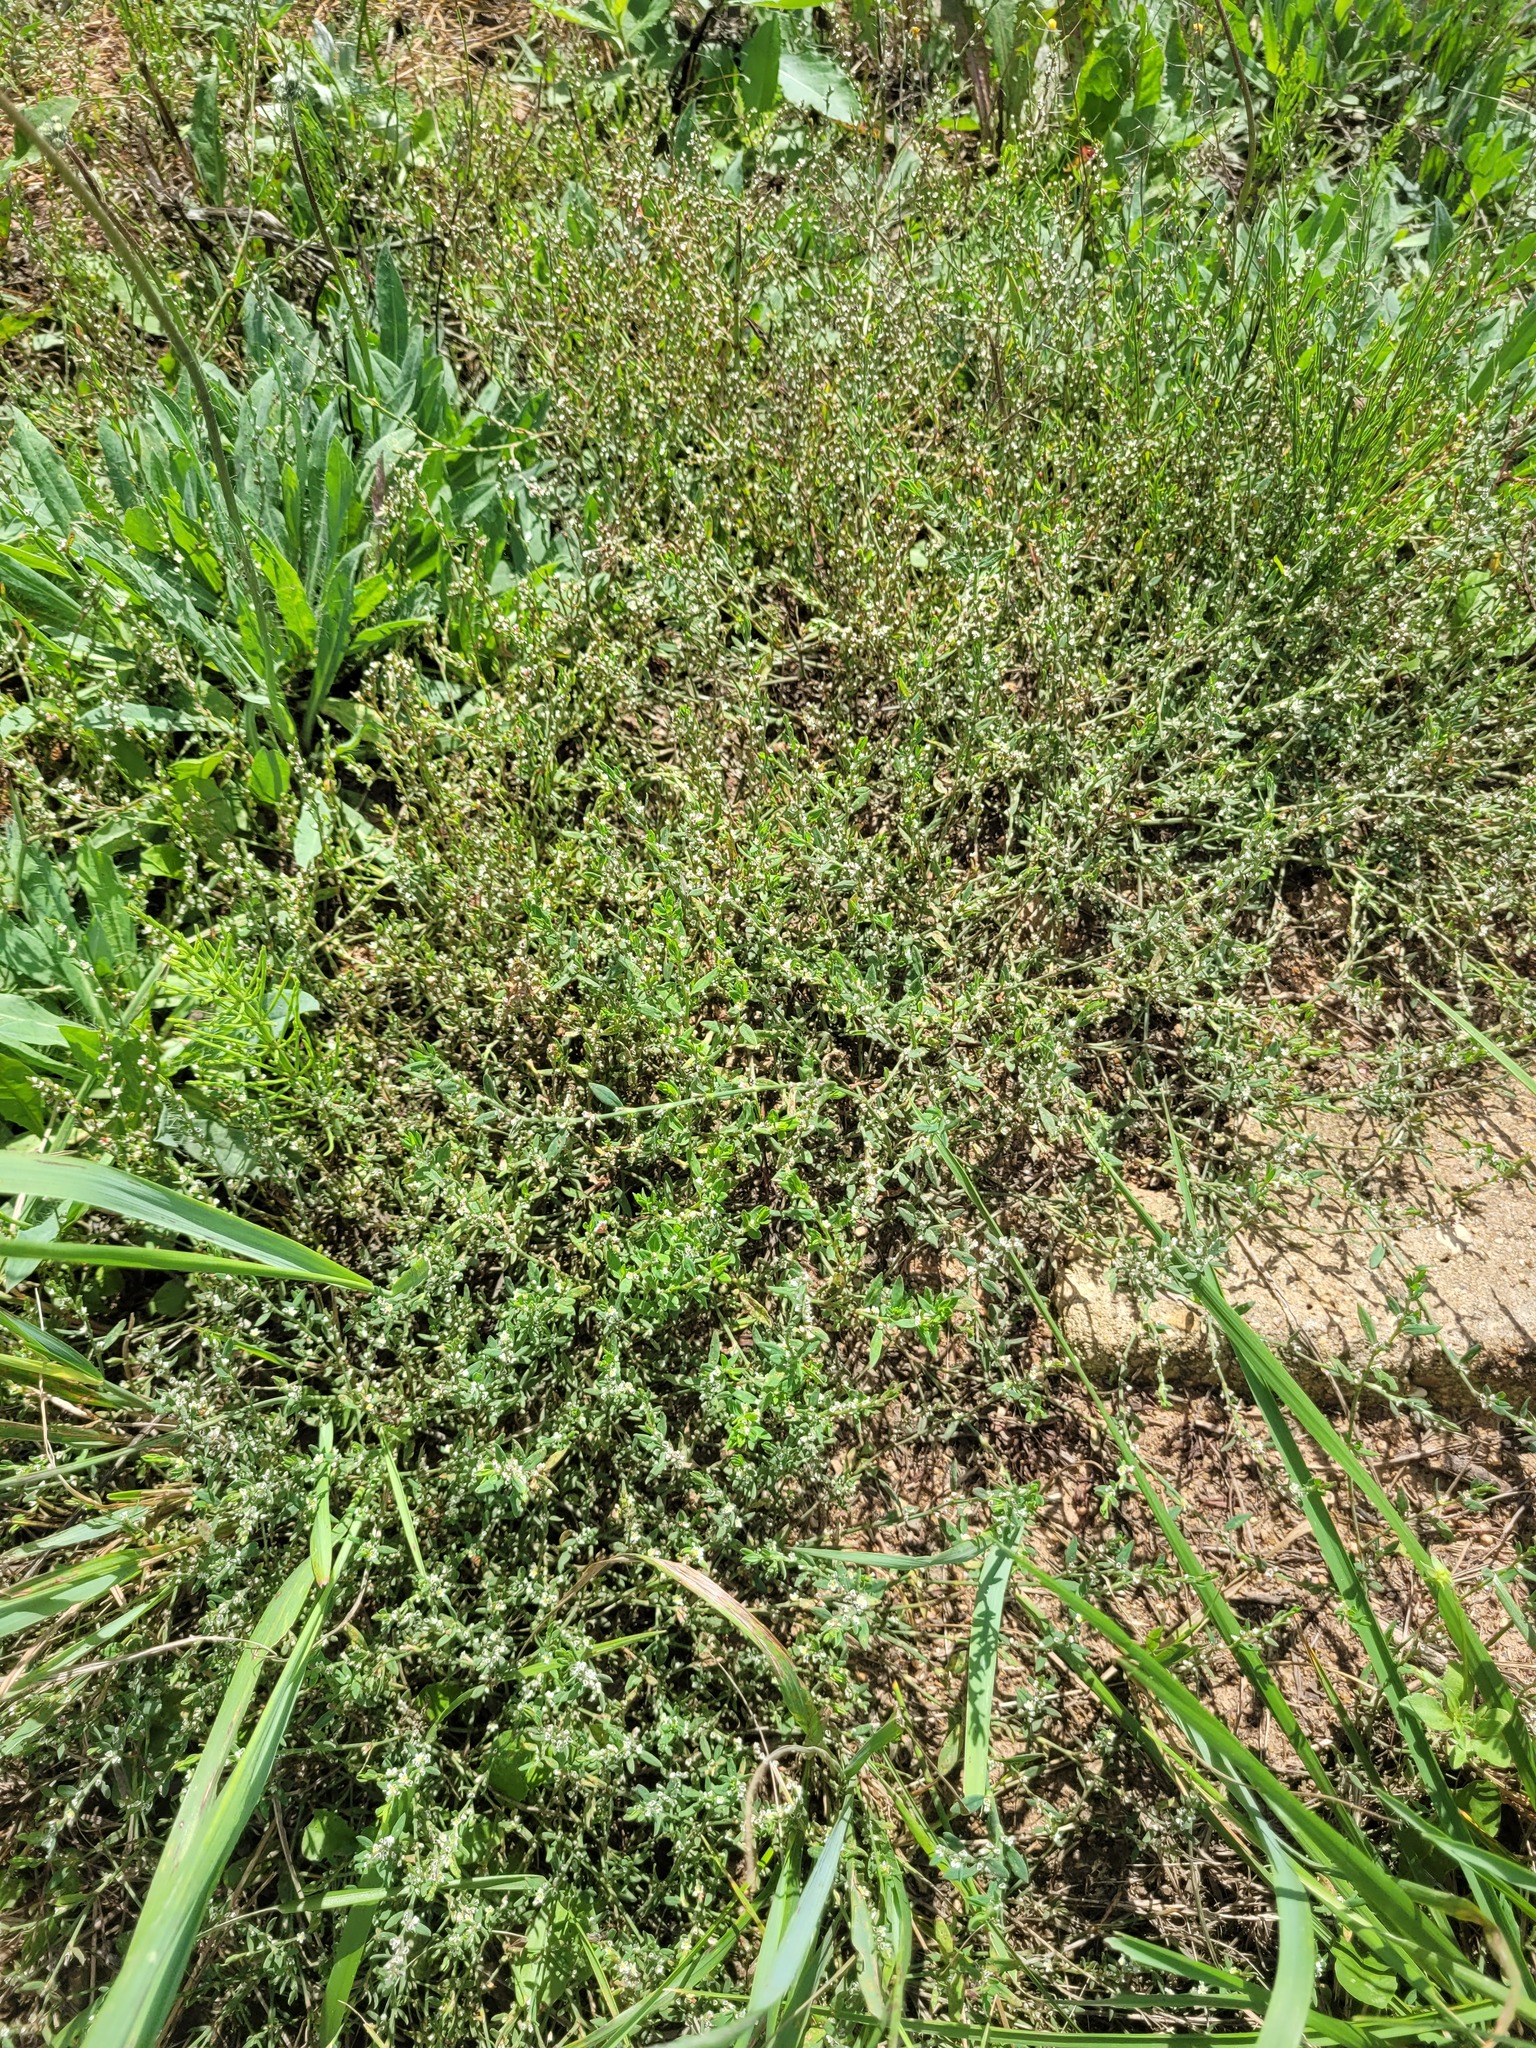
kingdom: Plantae
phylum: Tracheophyta
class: Magnoliopsida
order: Caryophyllales
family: Polygonaceae
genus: Polygonum
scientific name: Polygonum
